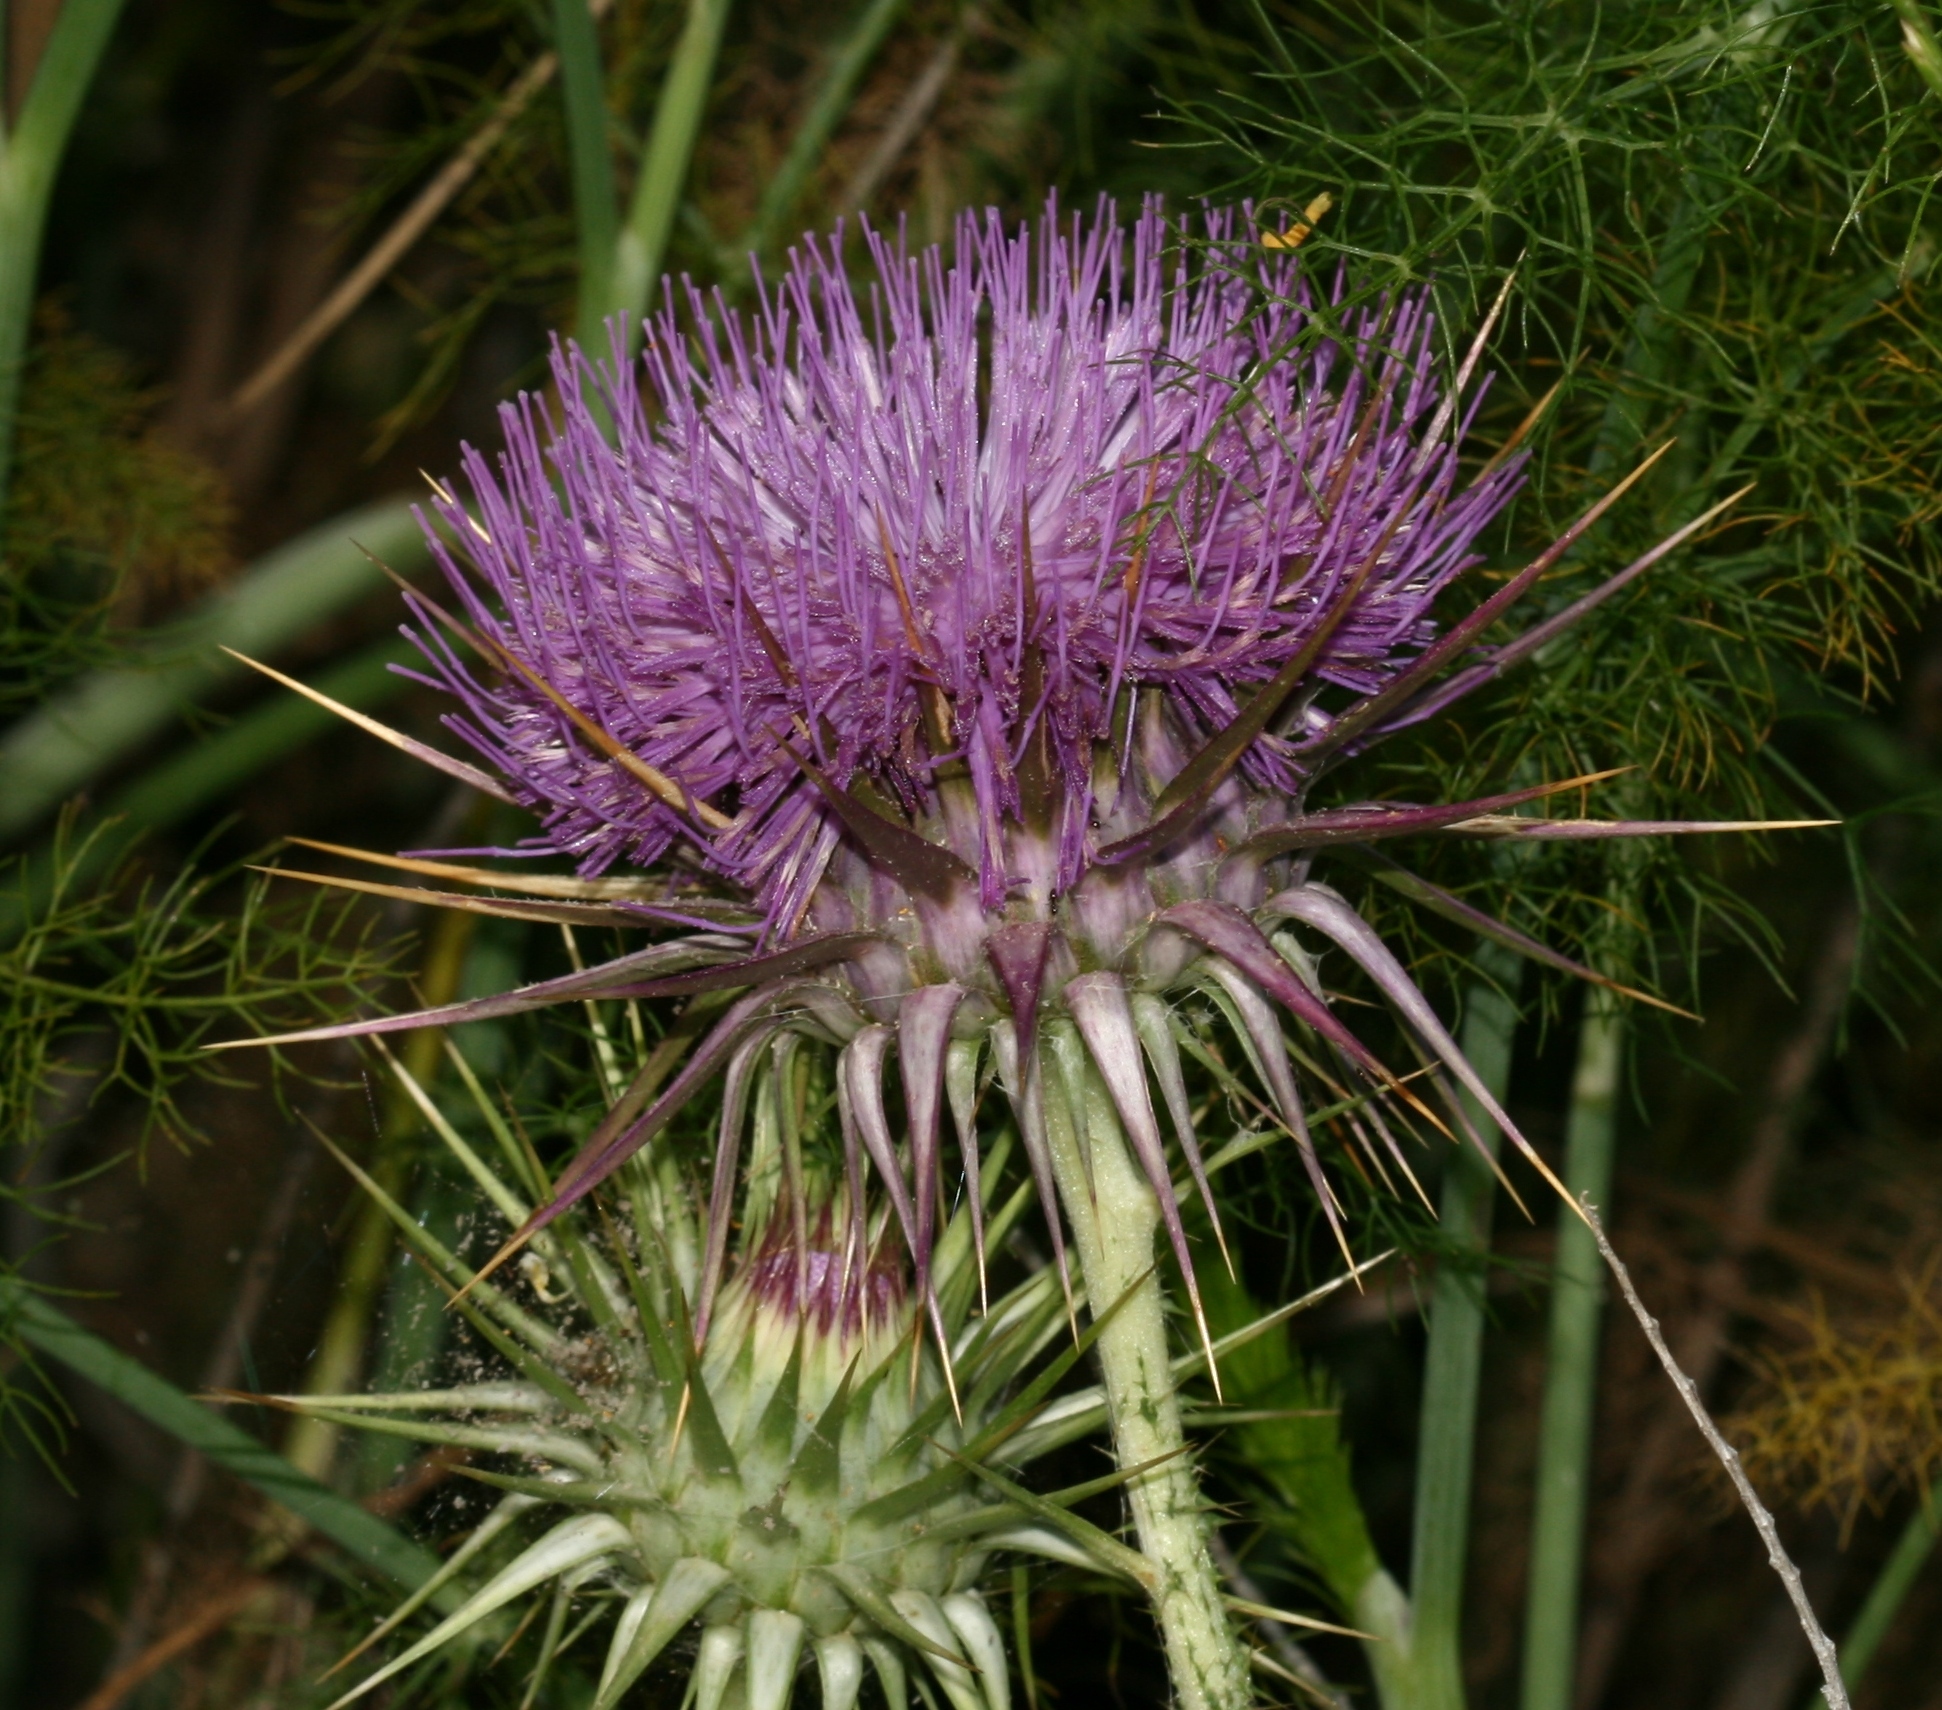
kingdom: Plantae
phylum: Tracheophyta
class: Magnoliopsida
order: Asterales
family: Asteraceae
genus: Onopordum
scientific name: Onopordum cyprium
